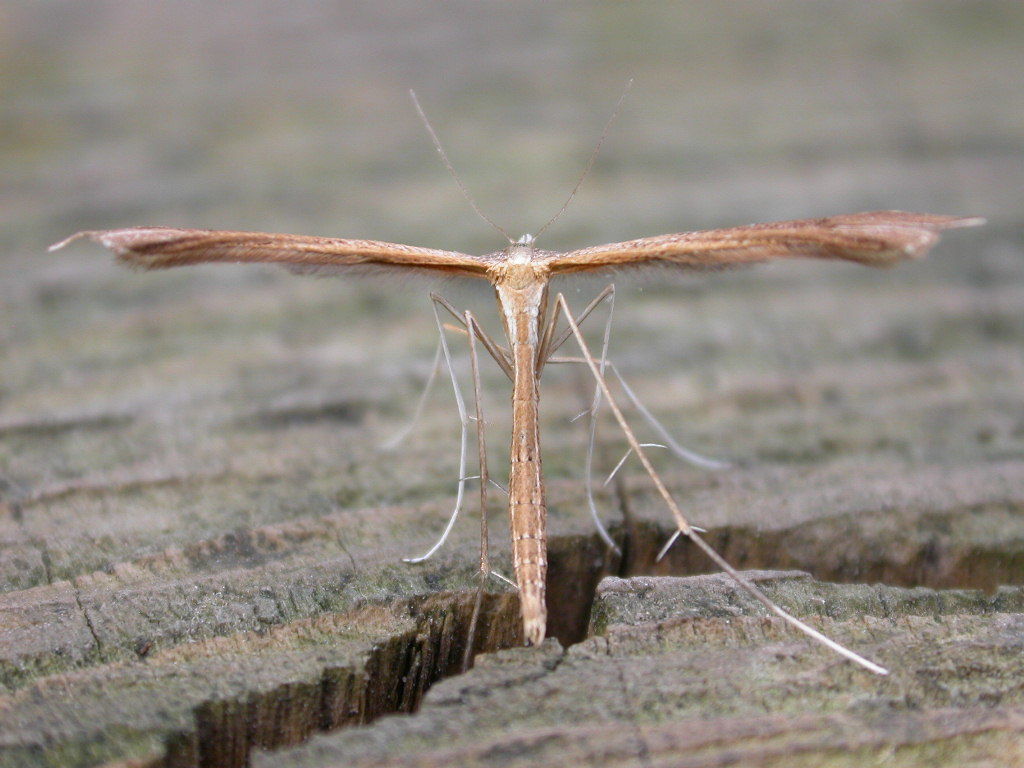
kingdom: Animalia
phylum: Arthropoda
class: Insecta
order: Lepidoptera
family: Pterophoridae
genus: Stenoptilia
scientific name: Stenoptilia bipunctidactyla
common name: Twin-spot plume
